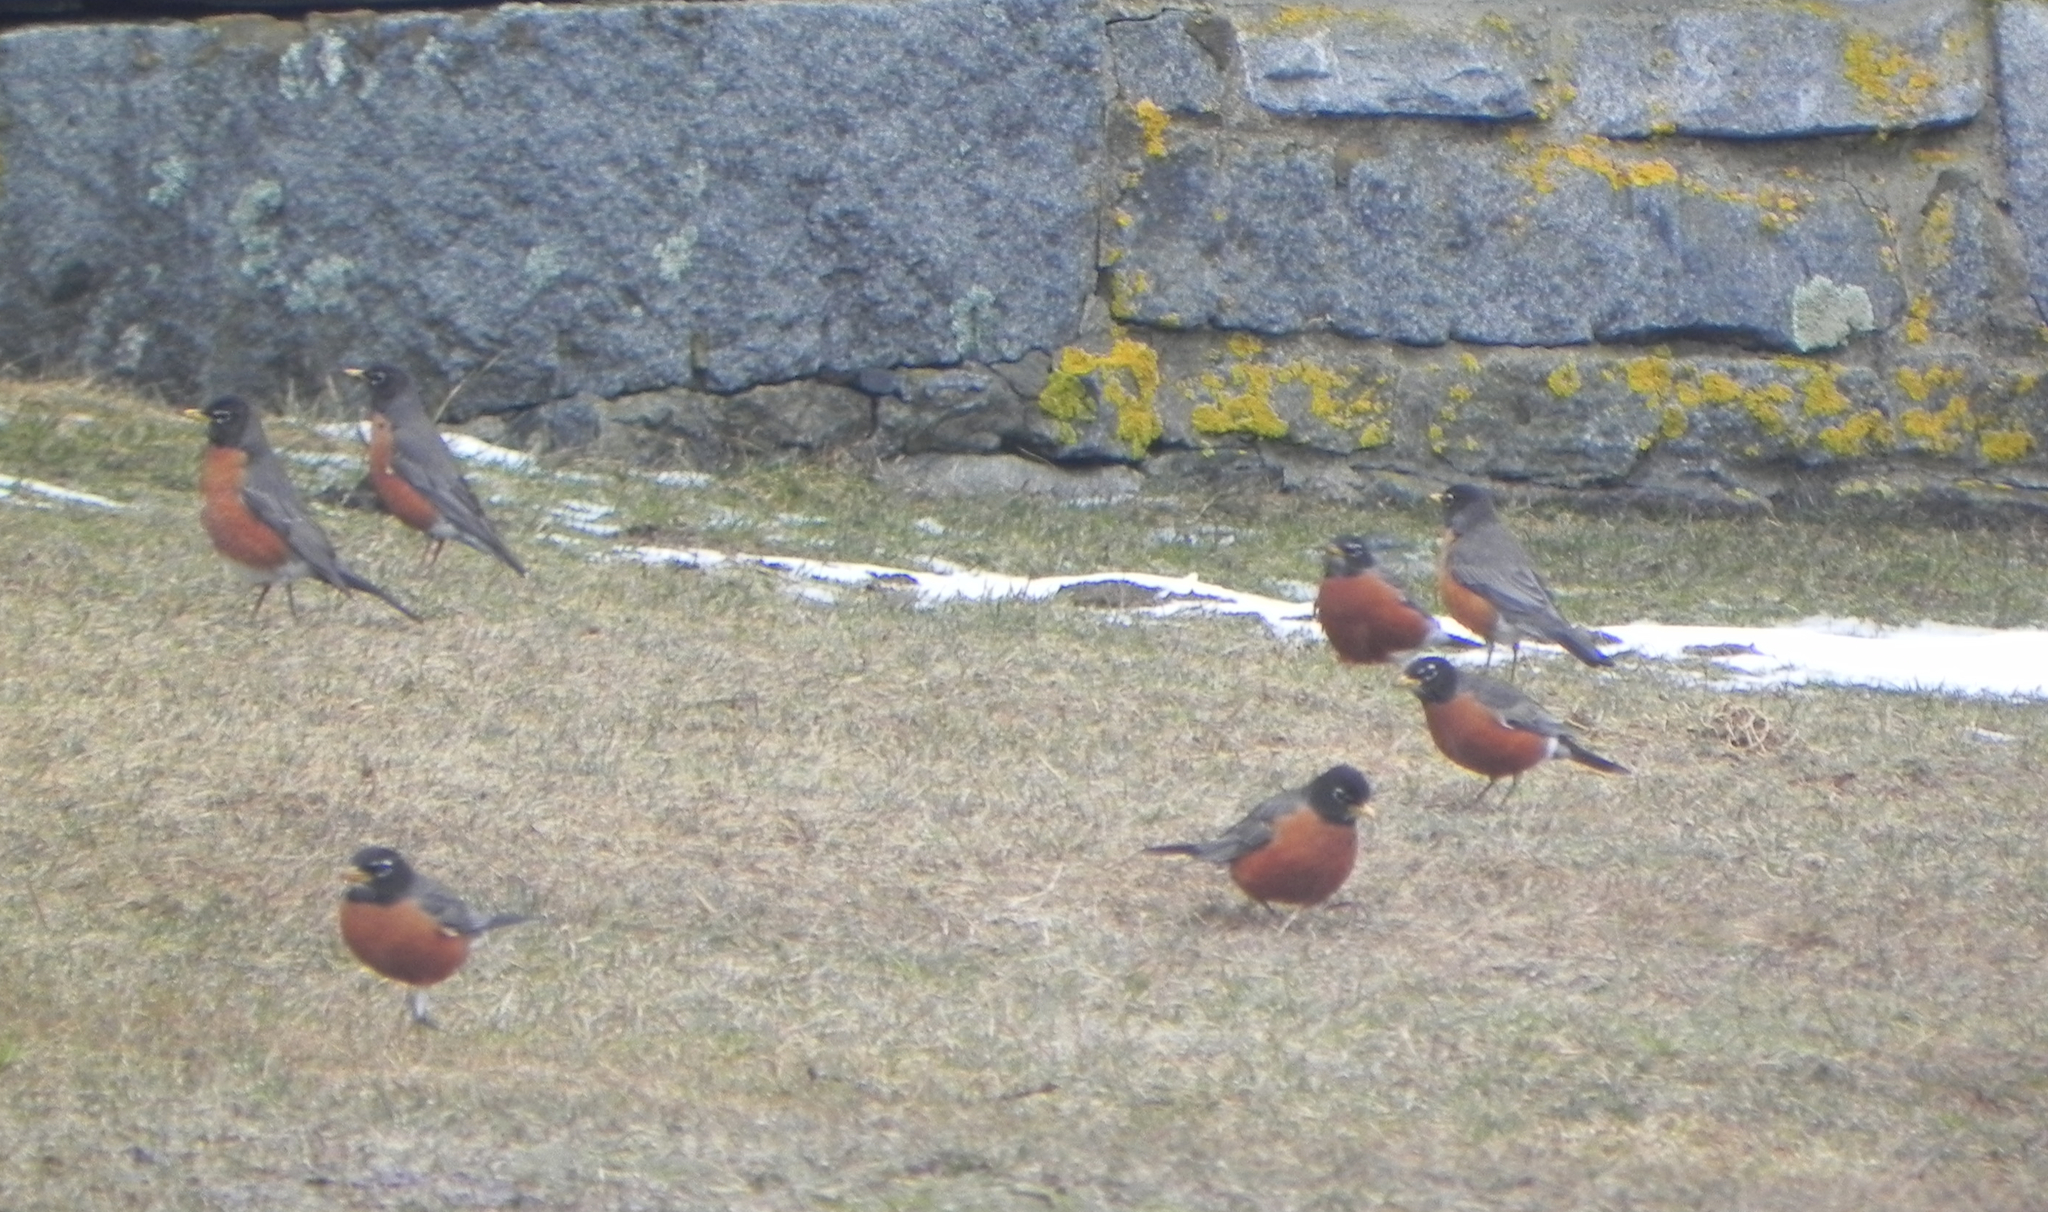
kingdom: Animalia
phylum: Chordata
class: Aves
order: Passeriformes
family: Turdidae
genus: Turdus
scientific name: Turdus migratorius
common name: American robin
